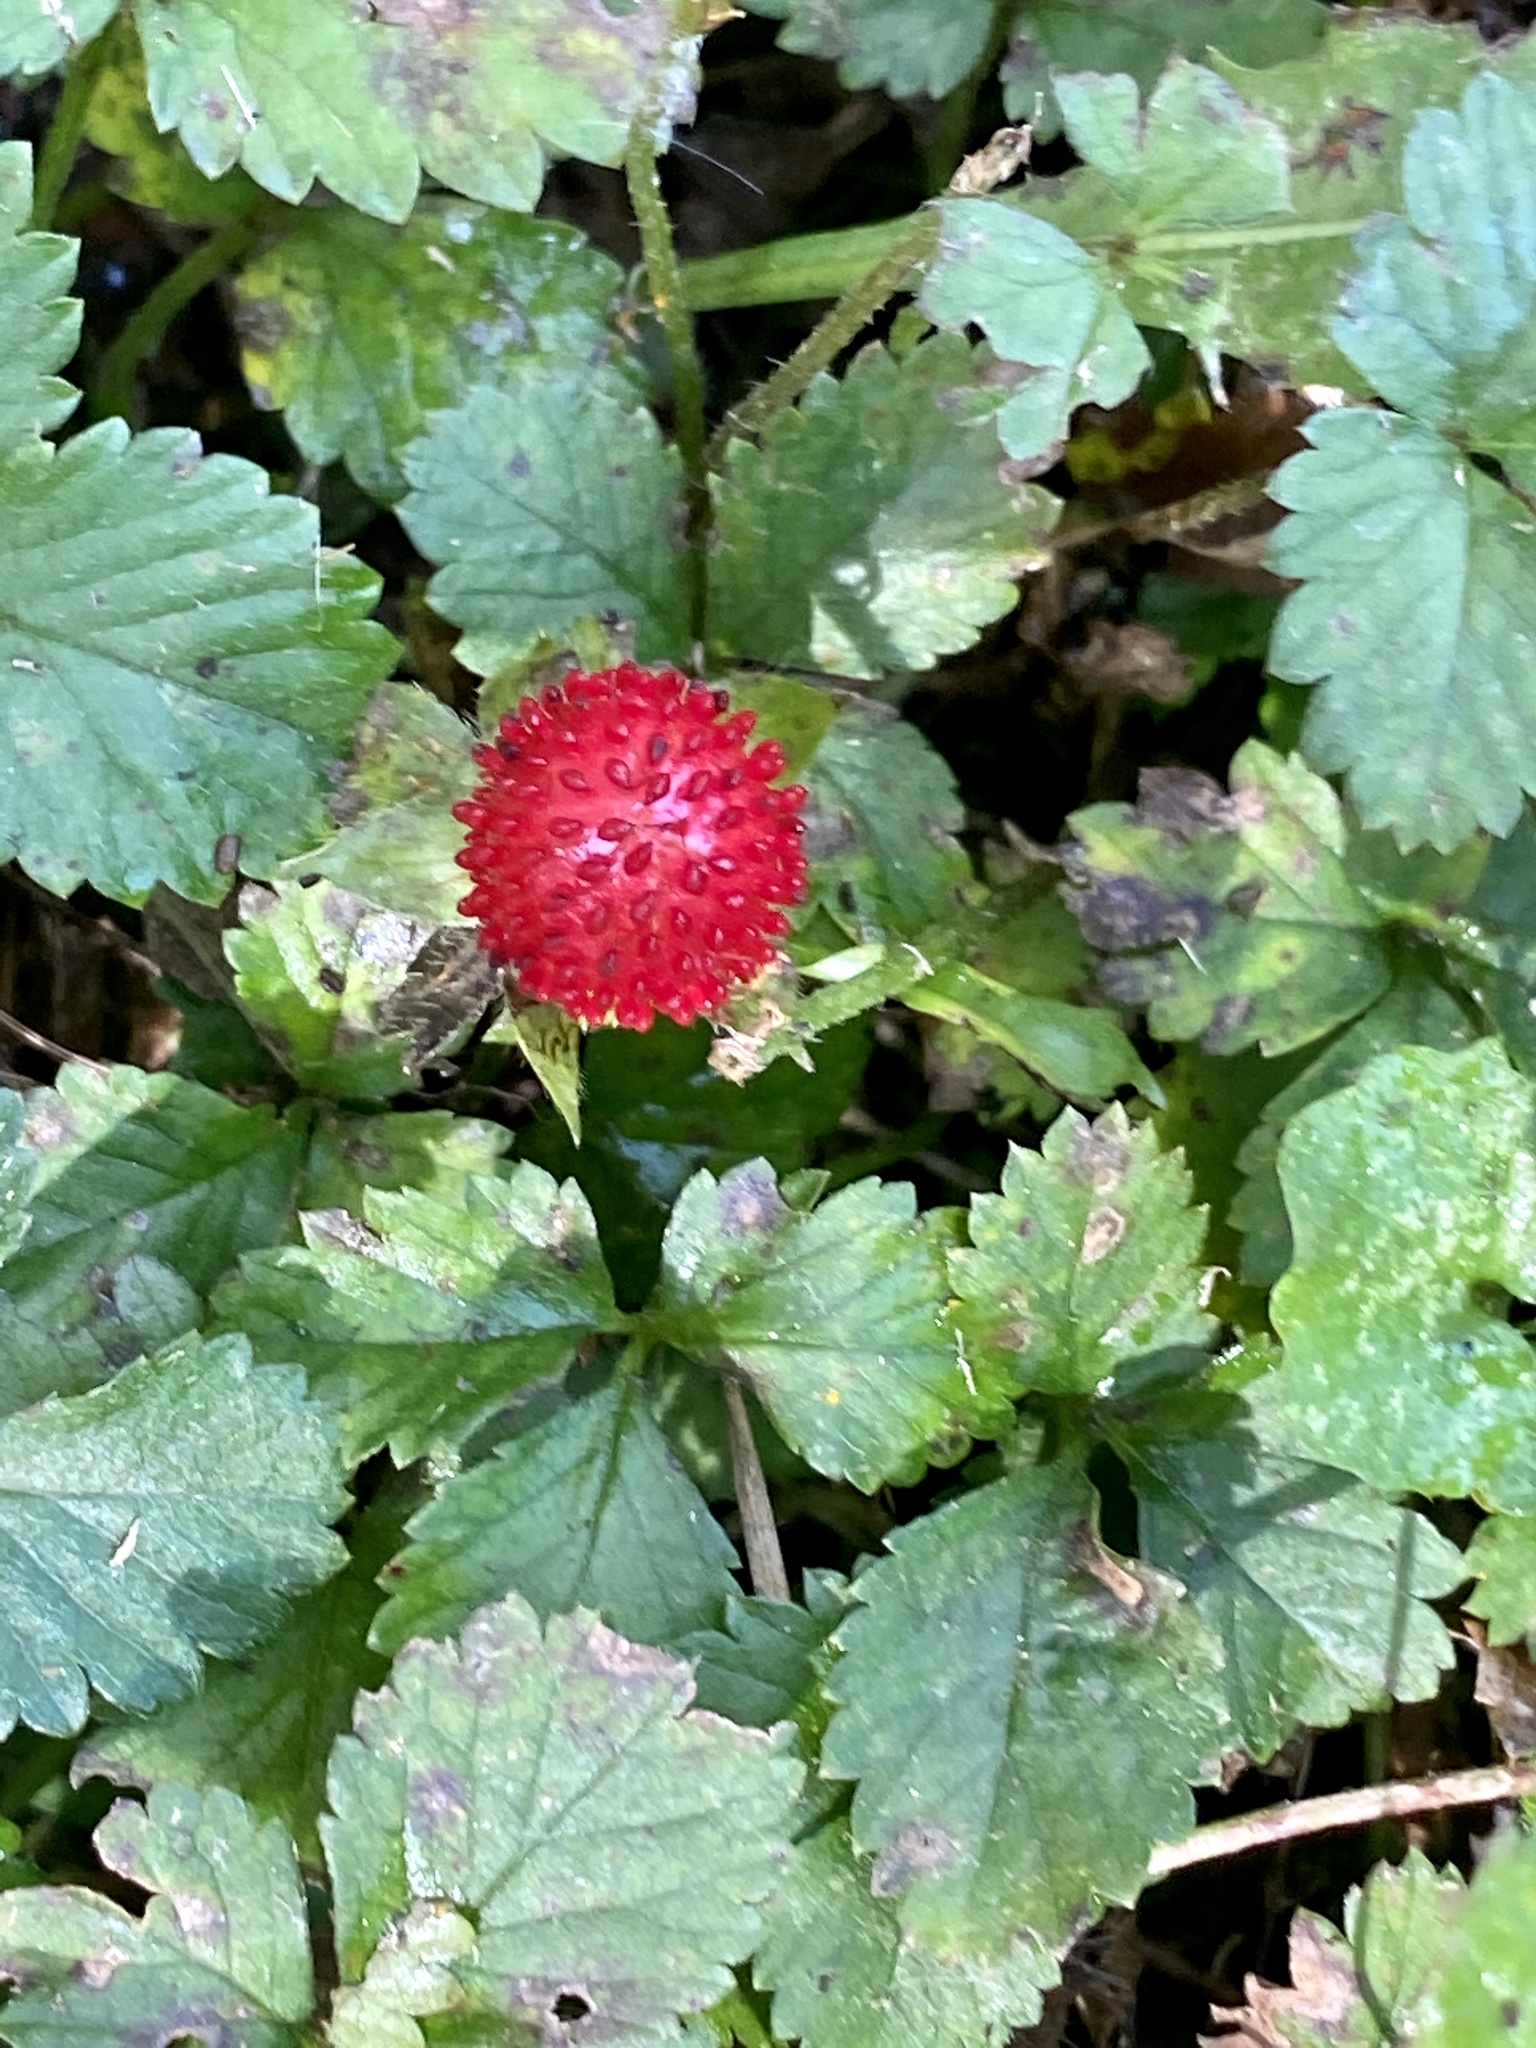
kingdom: Plantae
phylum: Tracheophyta
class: Magnoliopsida
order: Rosales
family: Rosaceae
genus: Potentilla
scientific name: Potentilla indica
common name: Yellow-flowered strawberry
